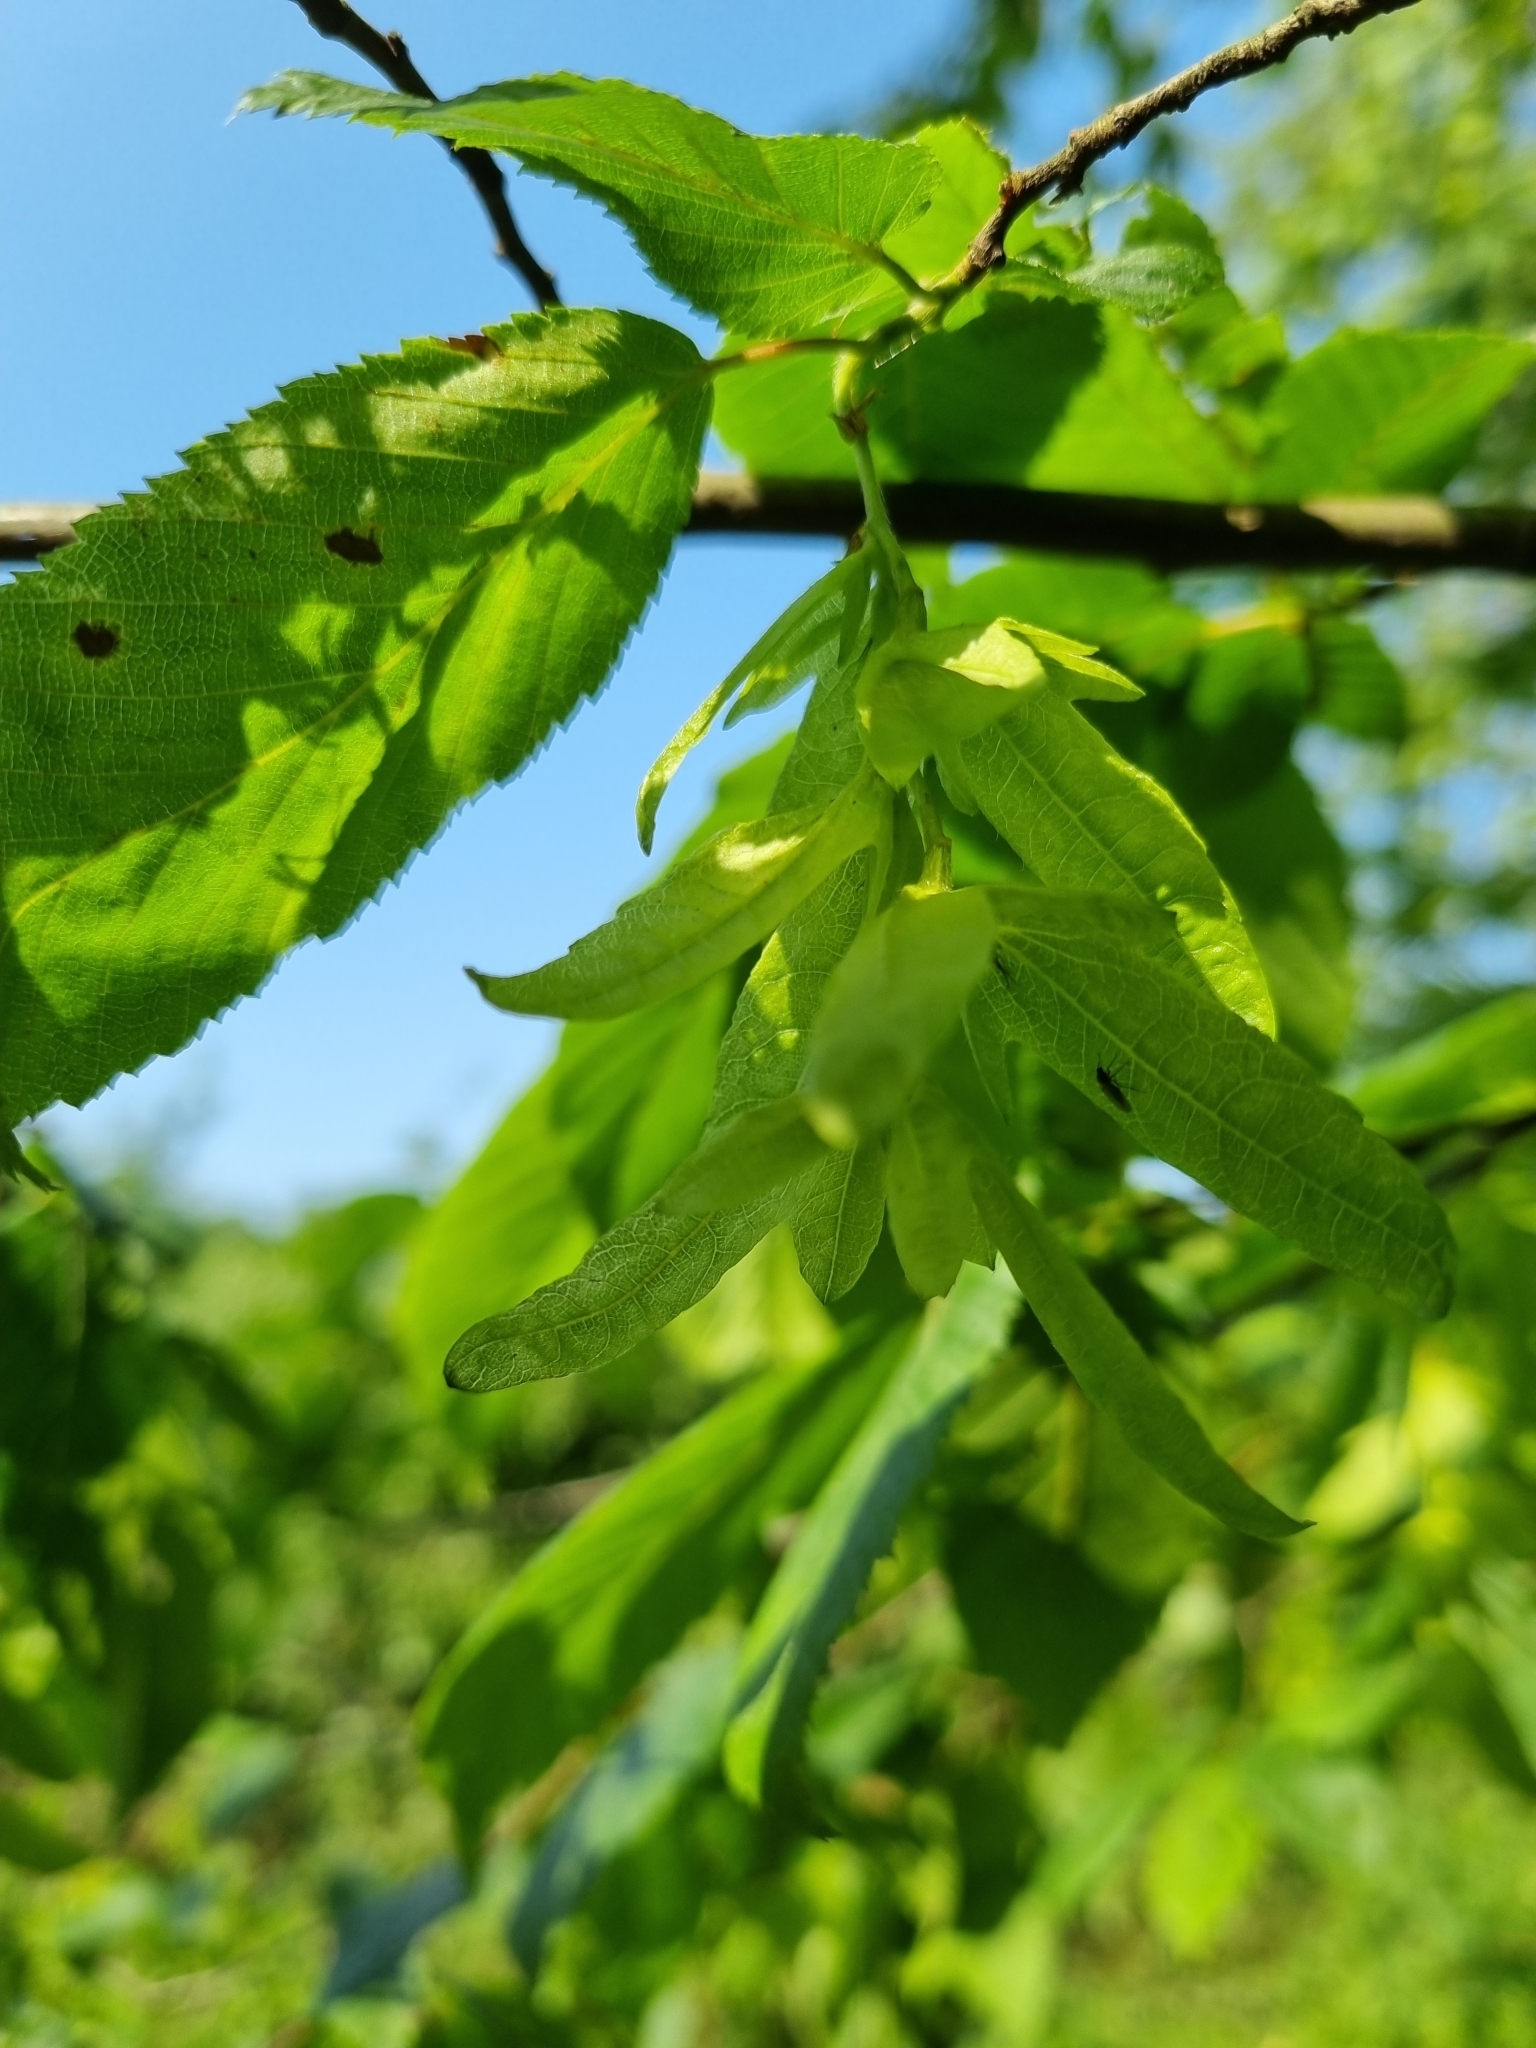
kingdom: Plantae
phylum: Tracheophyta
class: Magnoliopsida
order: Fagales
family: Betulaceae
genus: Carpinus
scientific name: Carpinus betulus
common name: Hornbeam
